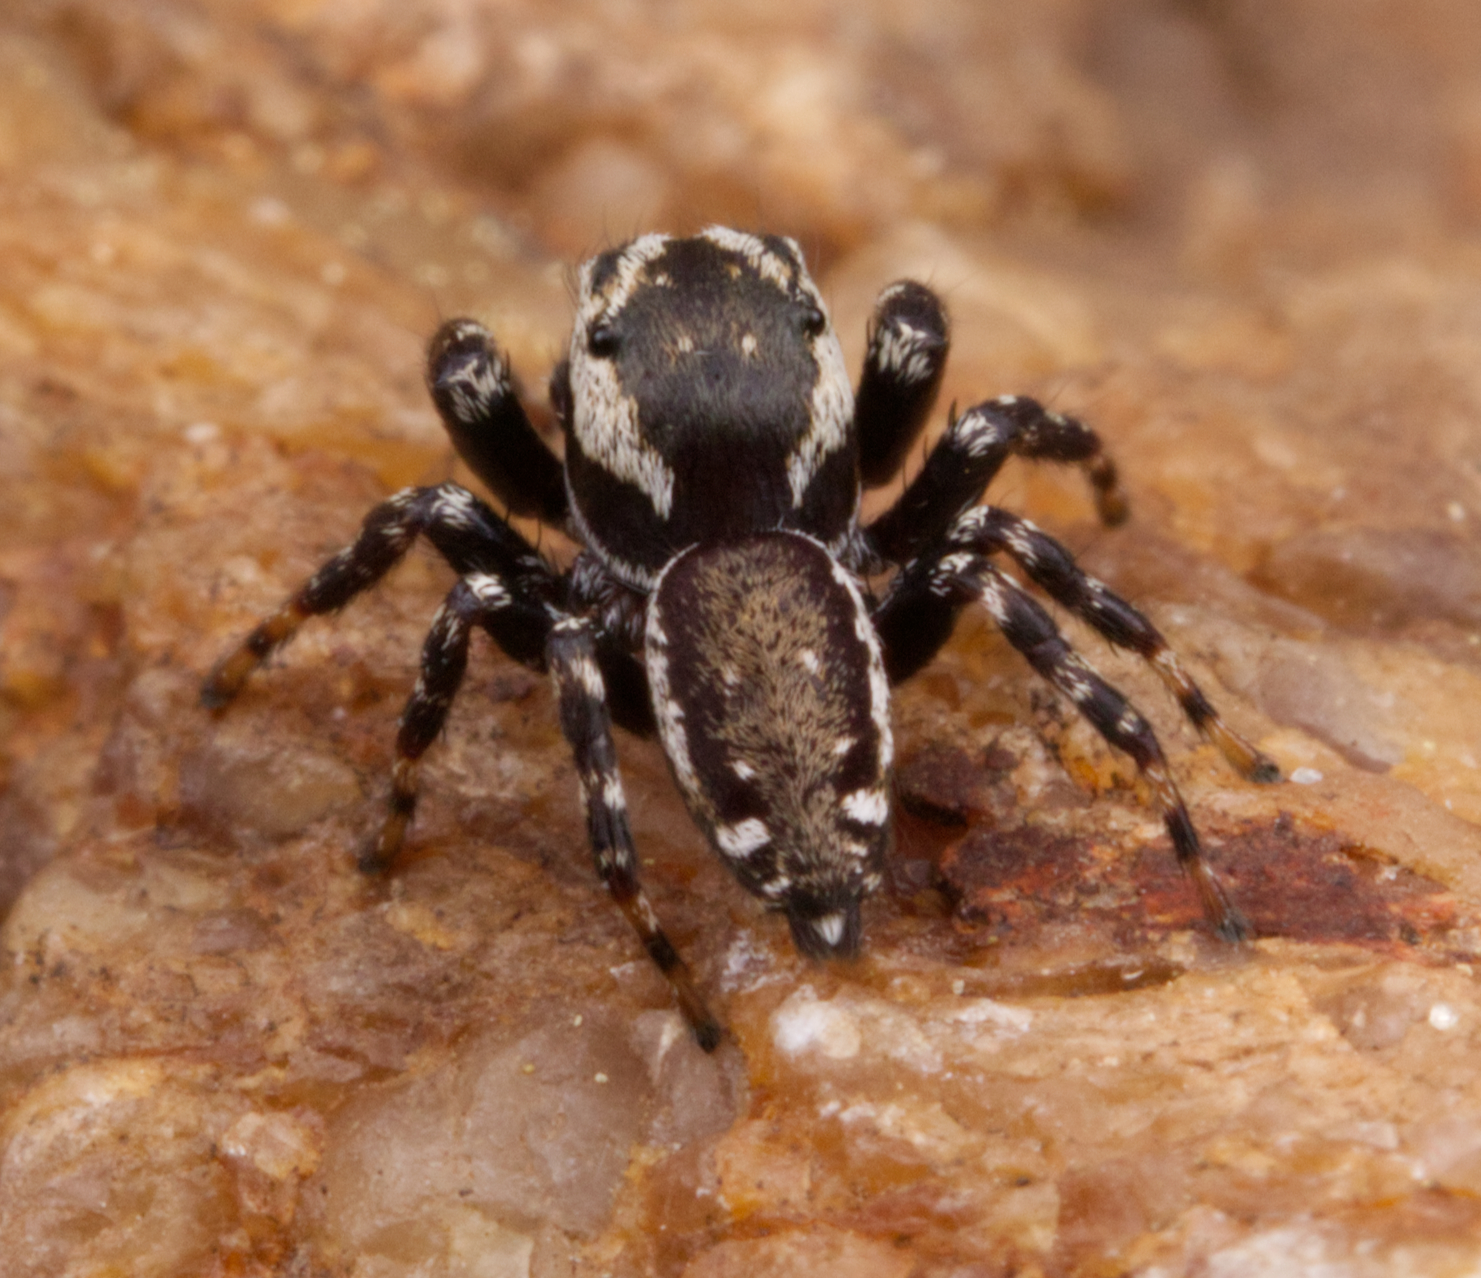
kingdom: Animalia
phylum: Arthropoda
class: Arachnida
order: Araneae
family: Salticidae
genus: Pelegrina
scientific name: Pelegrina galathea
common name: Jumping spiders
